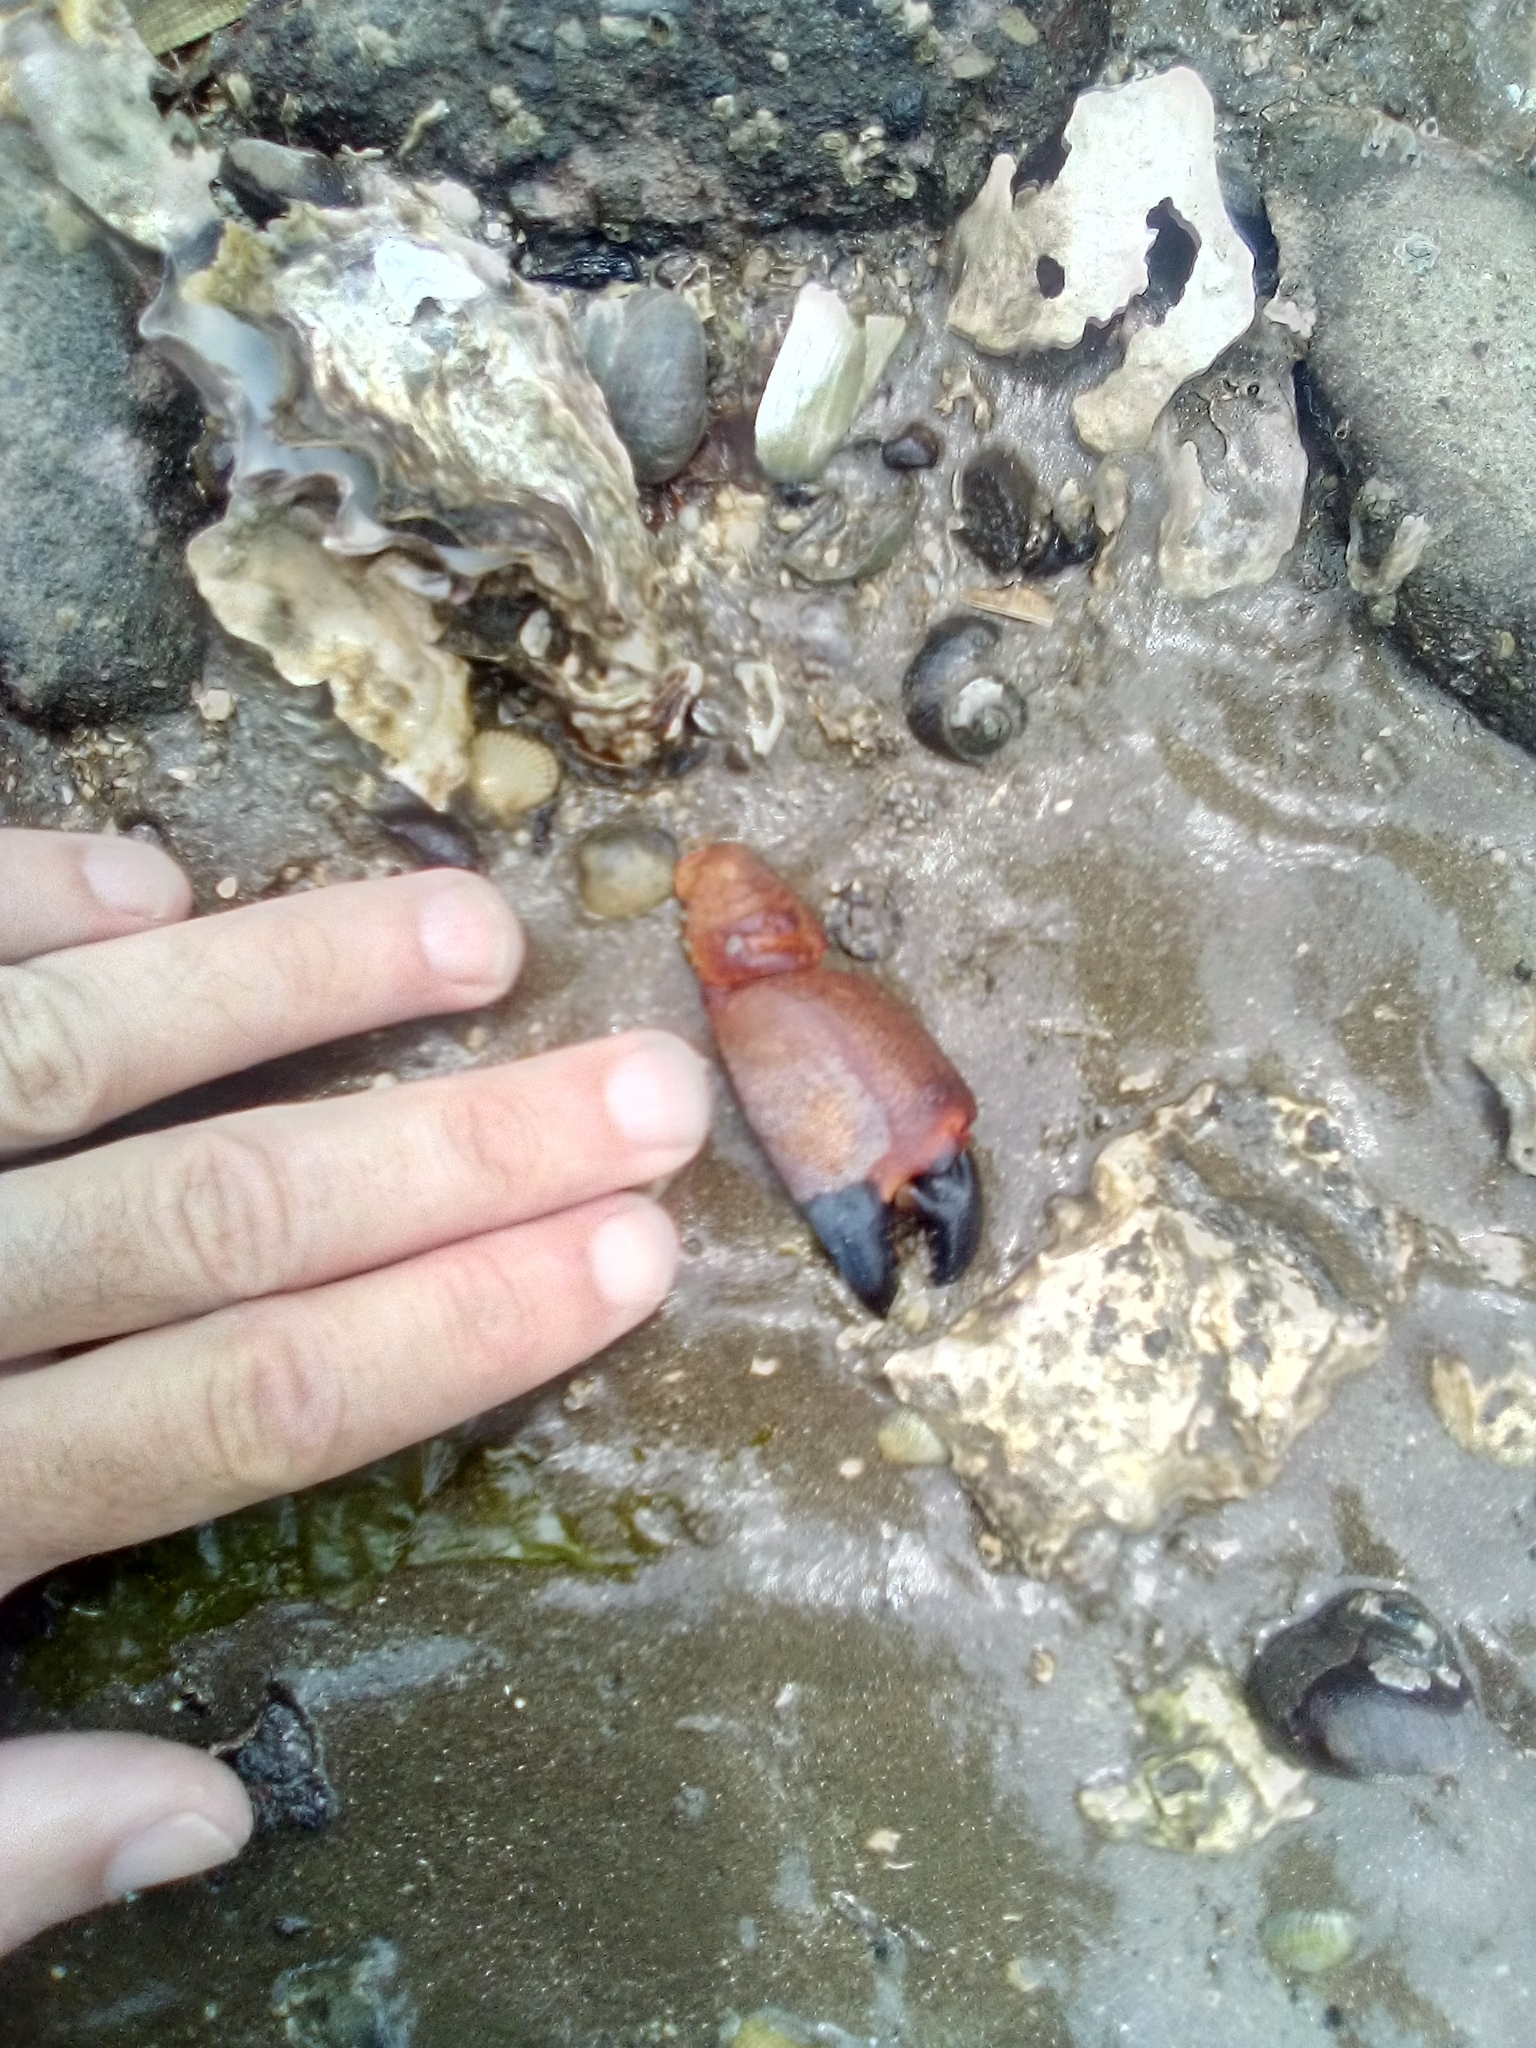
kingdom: Animalia
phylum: Arthropoda
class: Malacostraca
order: Decapoda
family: Oziidae
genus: Ozius
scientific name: Ozius deplanatus
